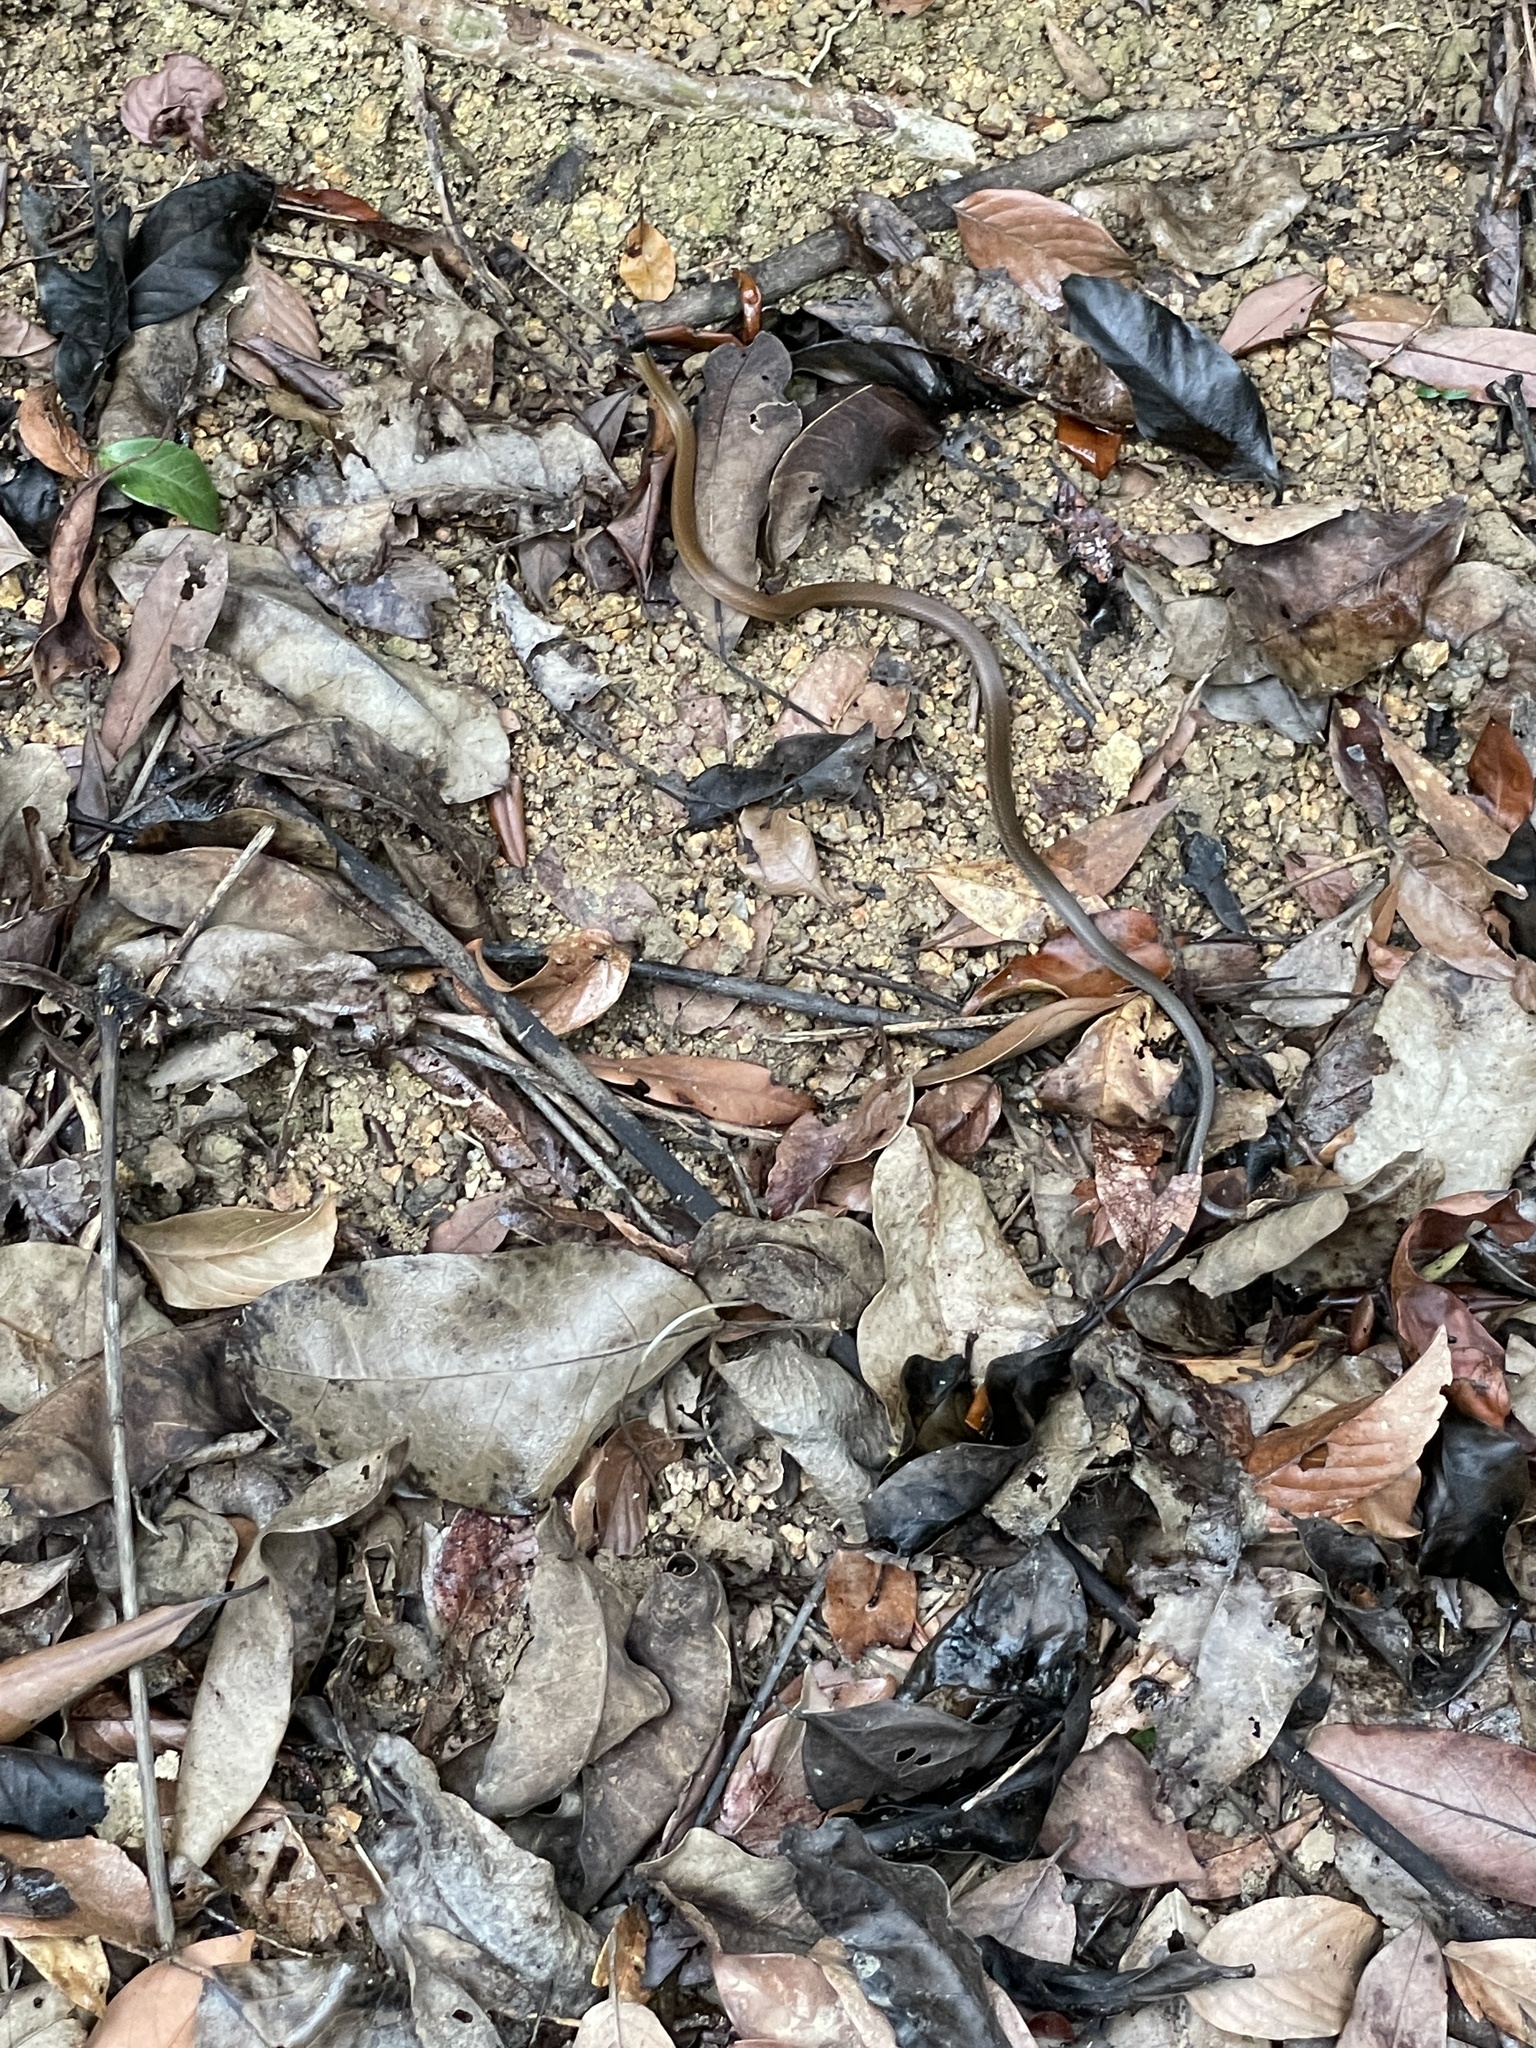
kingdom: Animalia
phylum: Chordata
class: Squamata
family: Colubridae
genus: Sibynophis
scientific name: Sibynophis chinensis
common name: Chinese many-tooth snake
